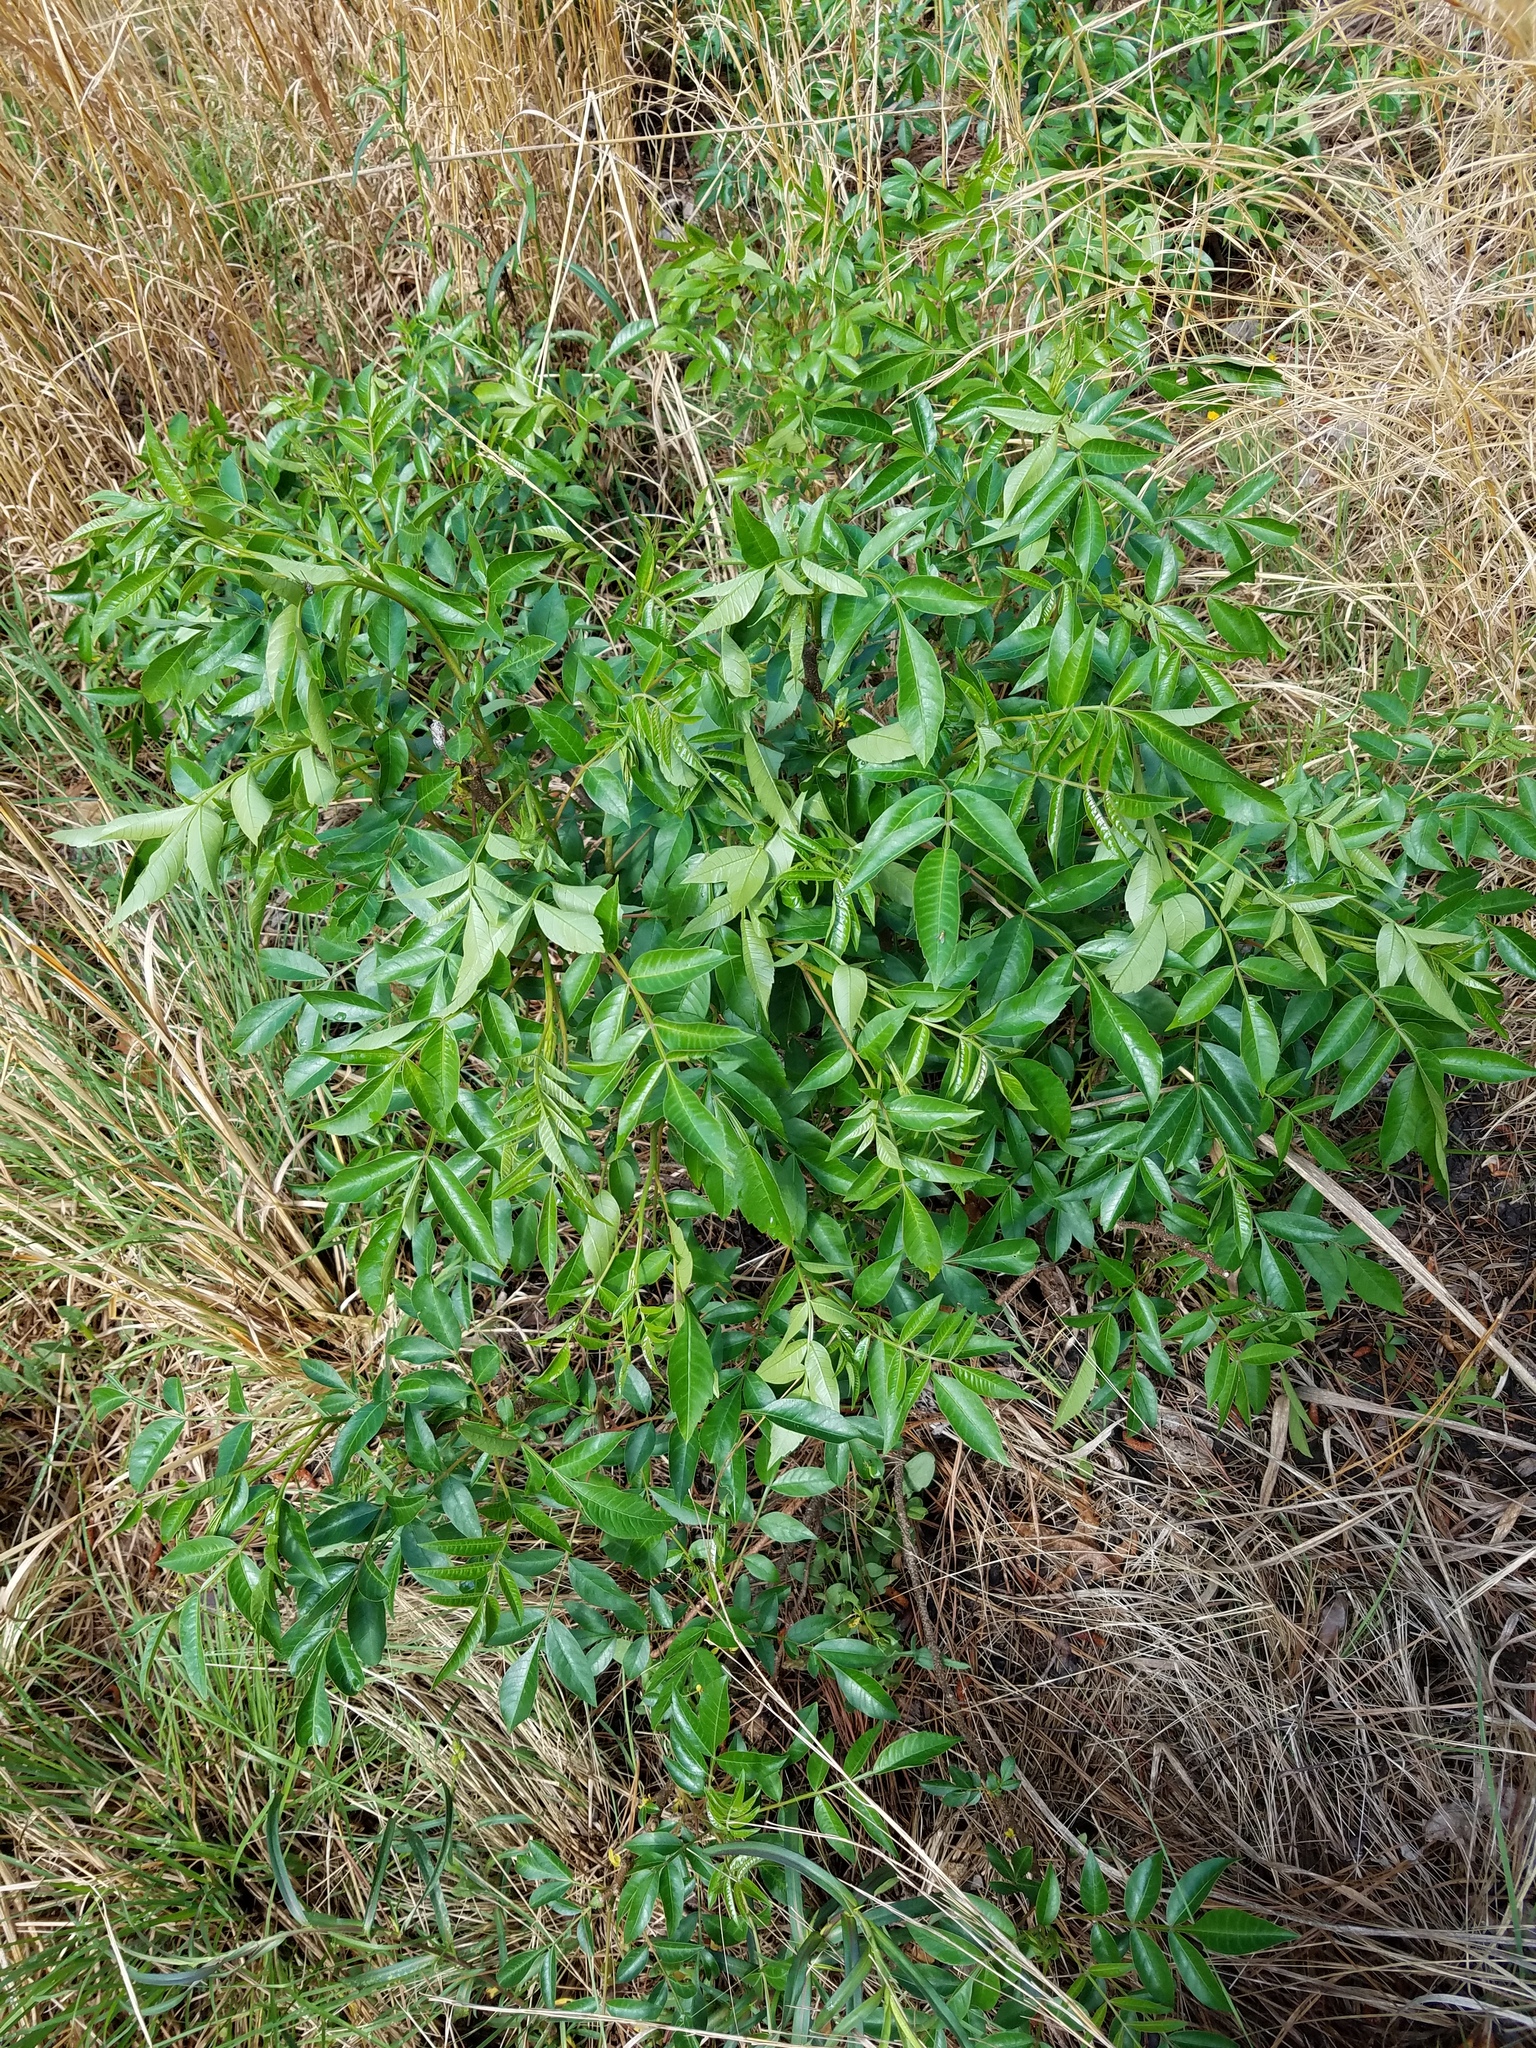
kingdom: Plantae
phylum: Tracheophyta
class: Magnoliopsida
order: Sapindales
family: Anacardiaceae
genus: Rhus
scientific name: Rhus copallina
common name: Shining sumac
